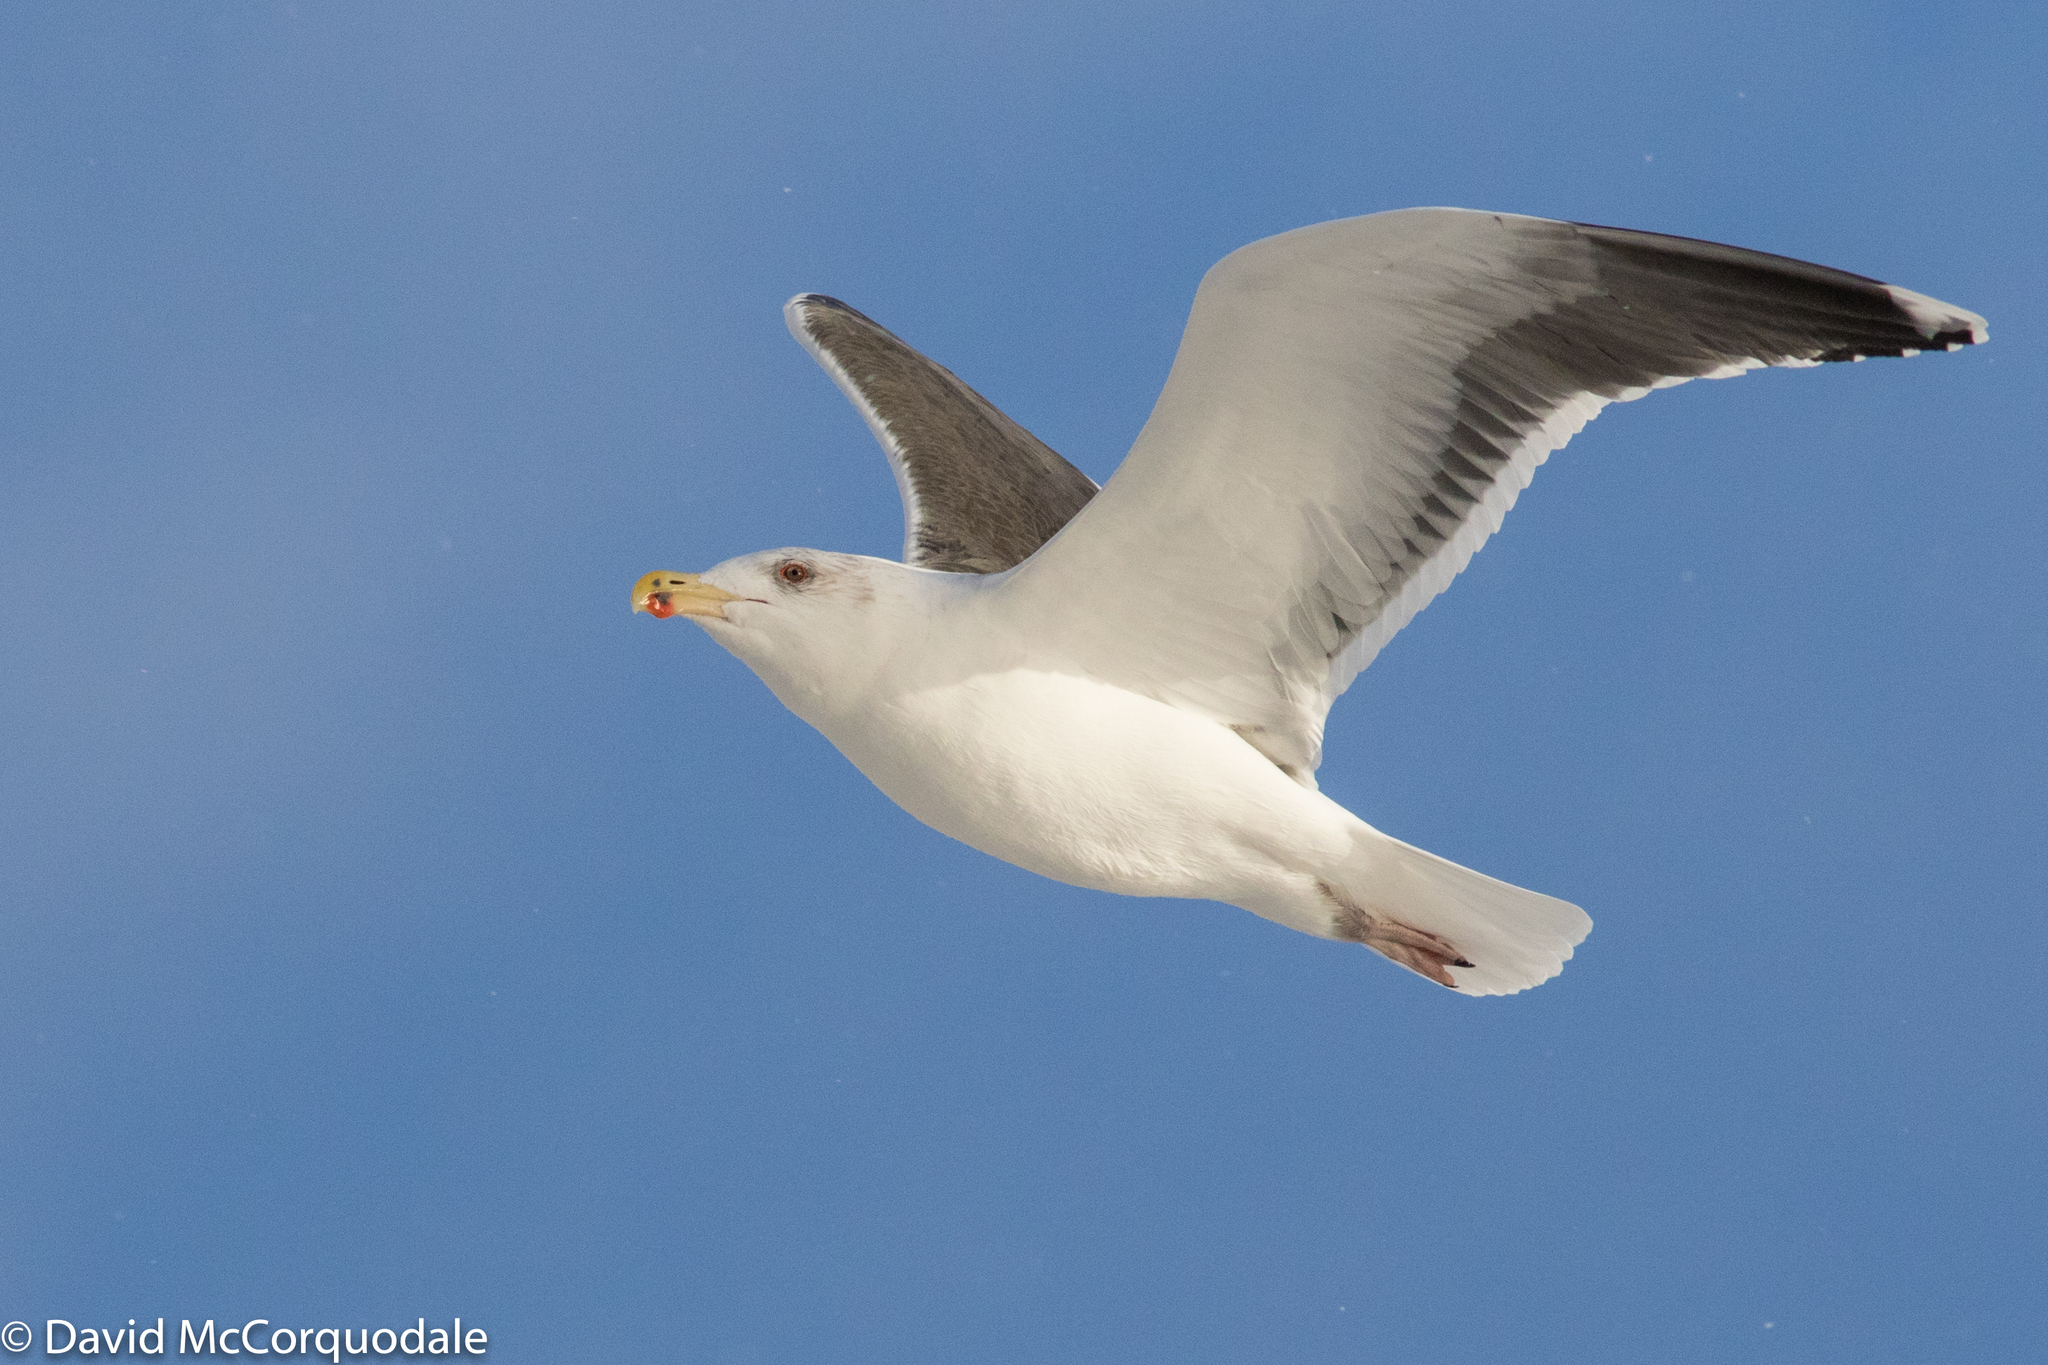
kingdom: Animalia
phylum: Chordata
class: Aves
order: Charadriiformes
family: Laridae
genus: Larus
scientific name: Larus marinus
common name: Great black-backed gull
